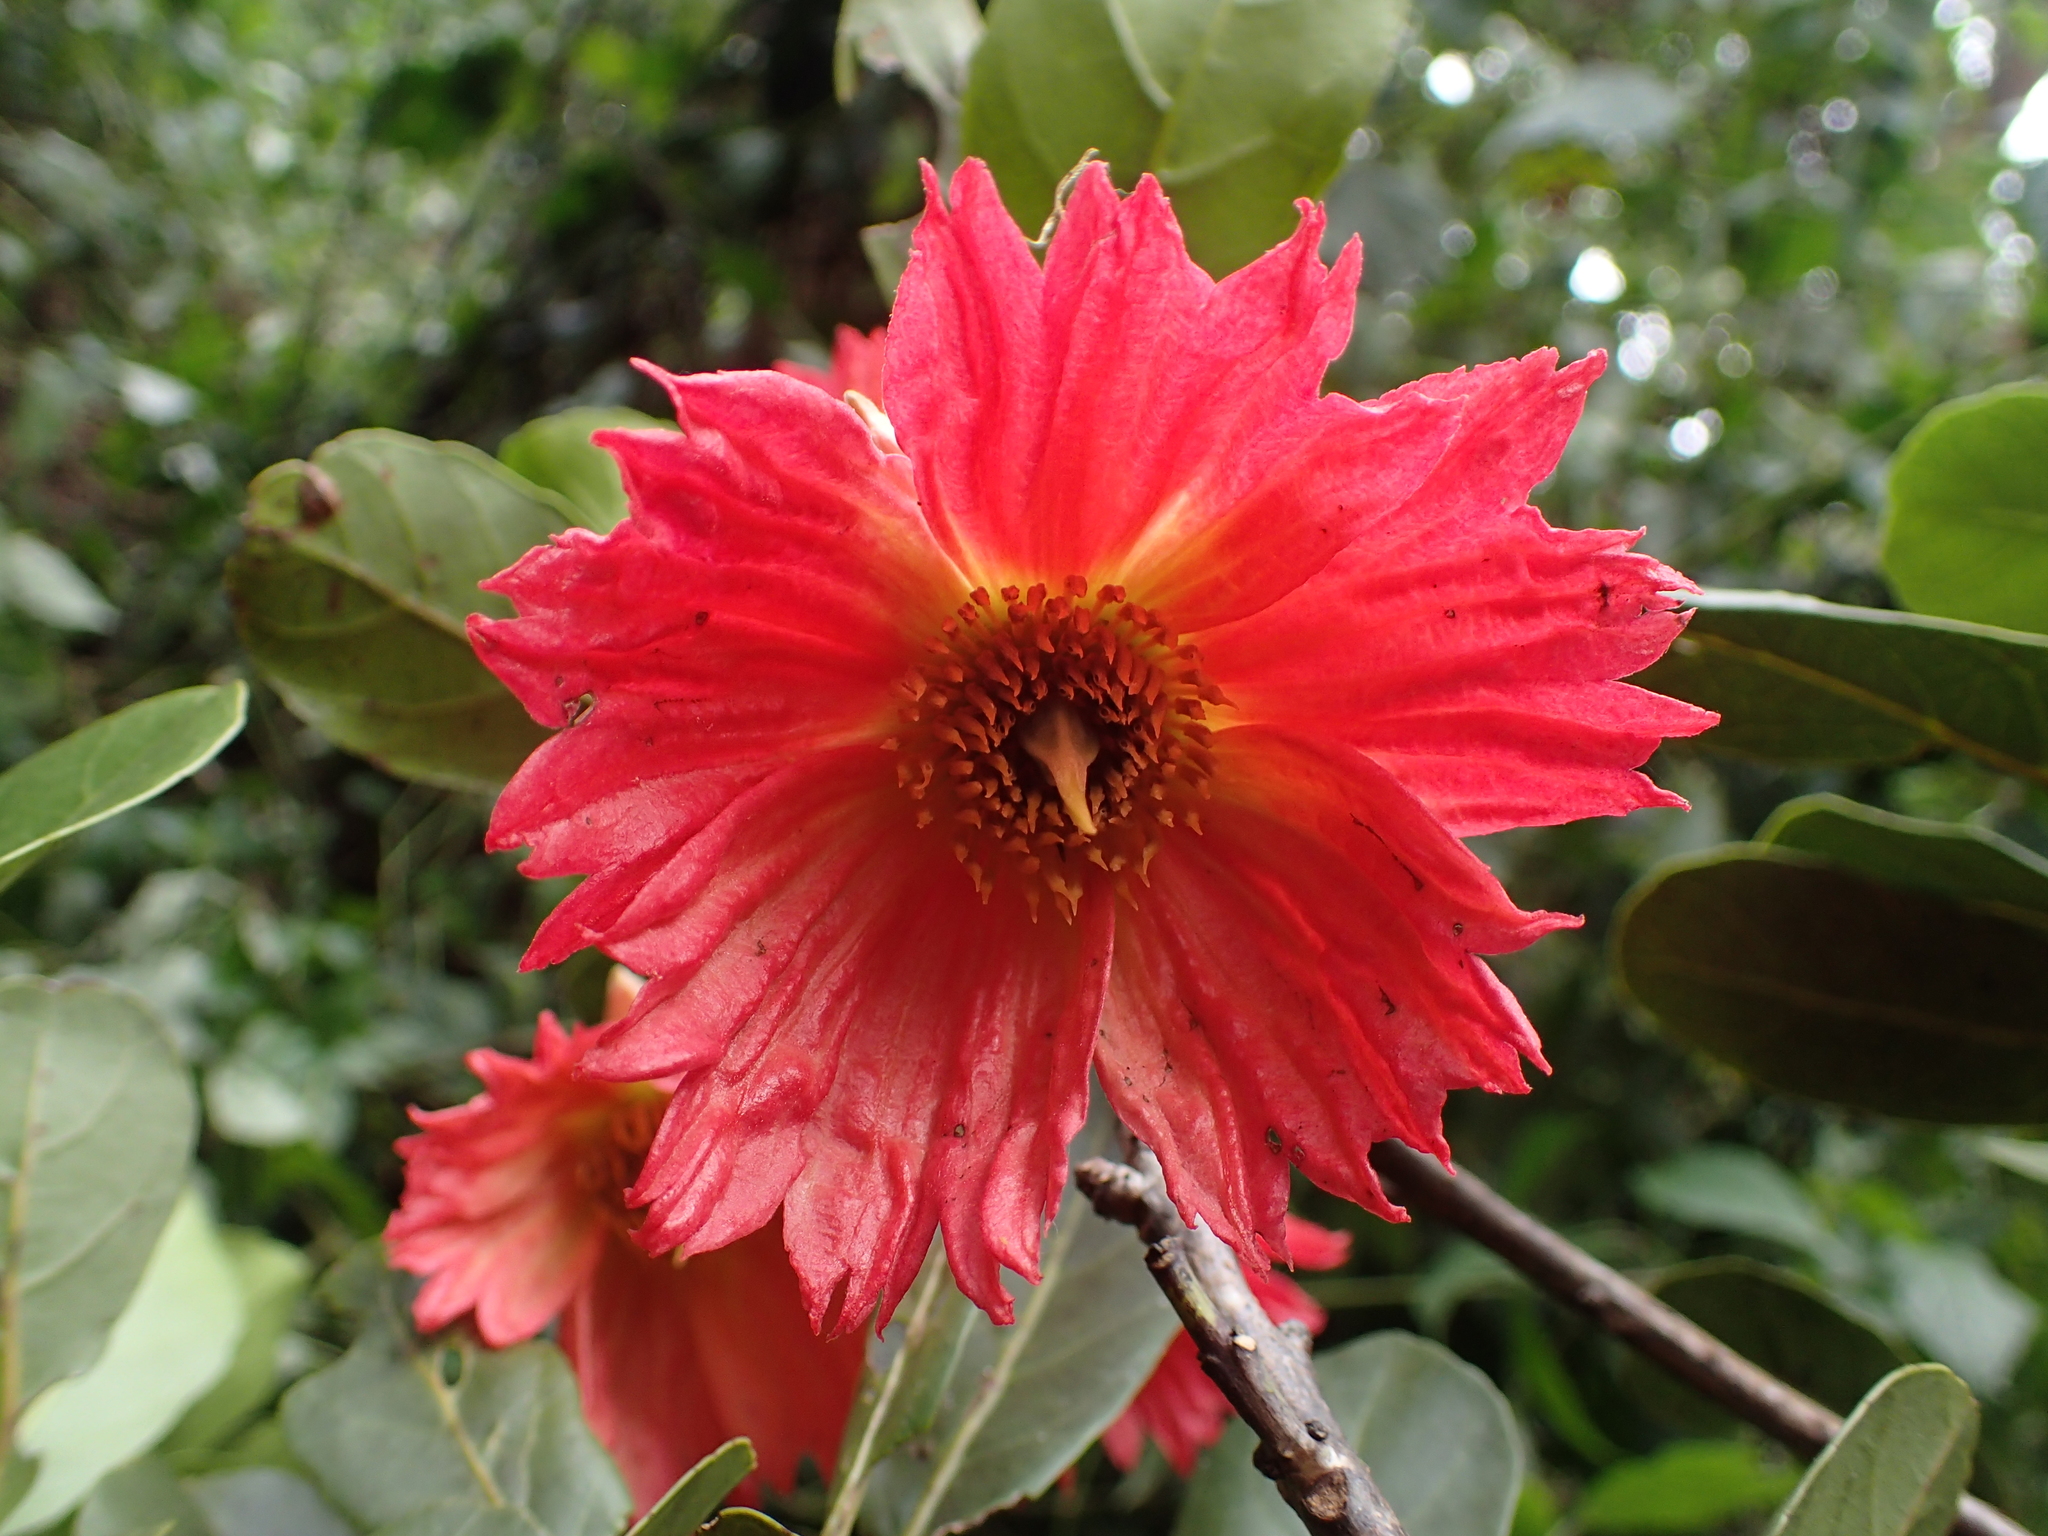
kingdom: Plantae
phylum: Tracheophyta
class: Magnoliopsida
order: Oxalidales
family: Elaeocarpaceae
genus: Sloanea
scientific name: Sloanea rhodantha
